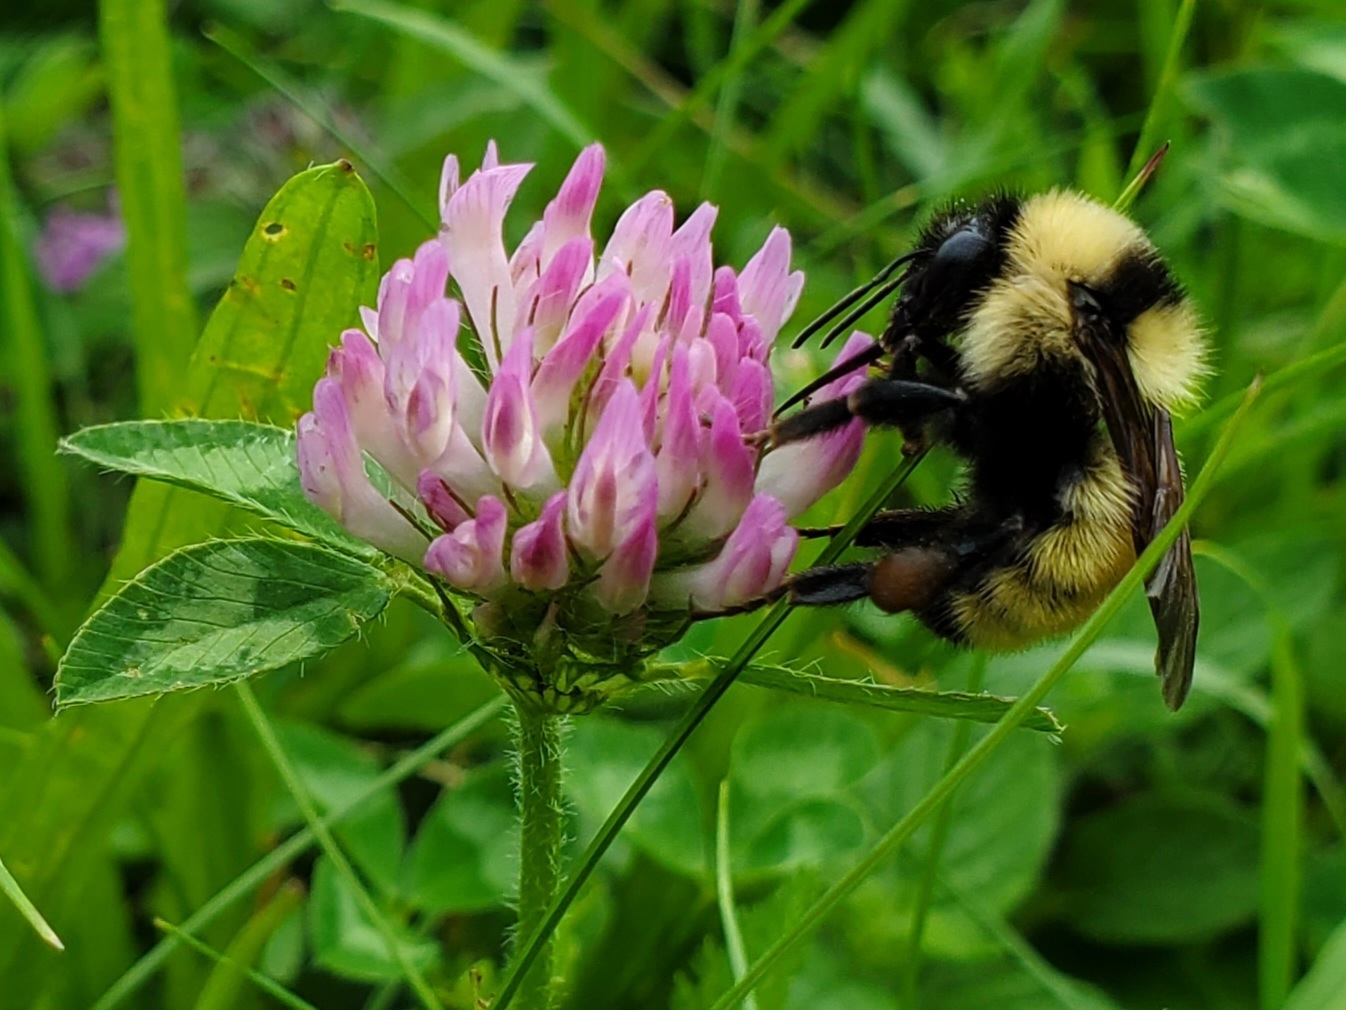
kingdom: Animalia
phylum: Arthropoda
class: Insecta
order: Hymenoptera
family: Apidae
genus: Bombus
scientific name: Bombus fervidus
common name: Yellow bumble bee
